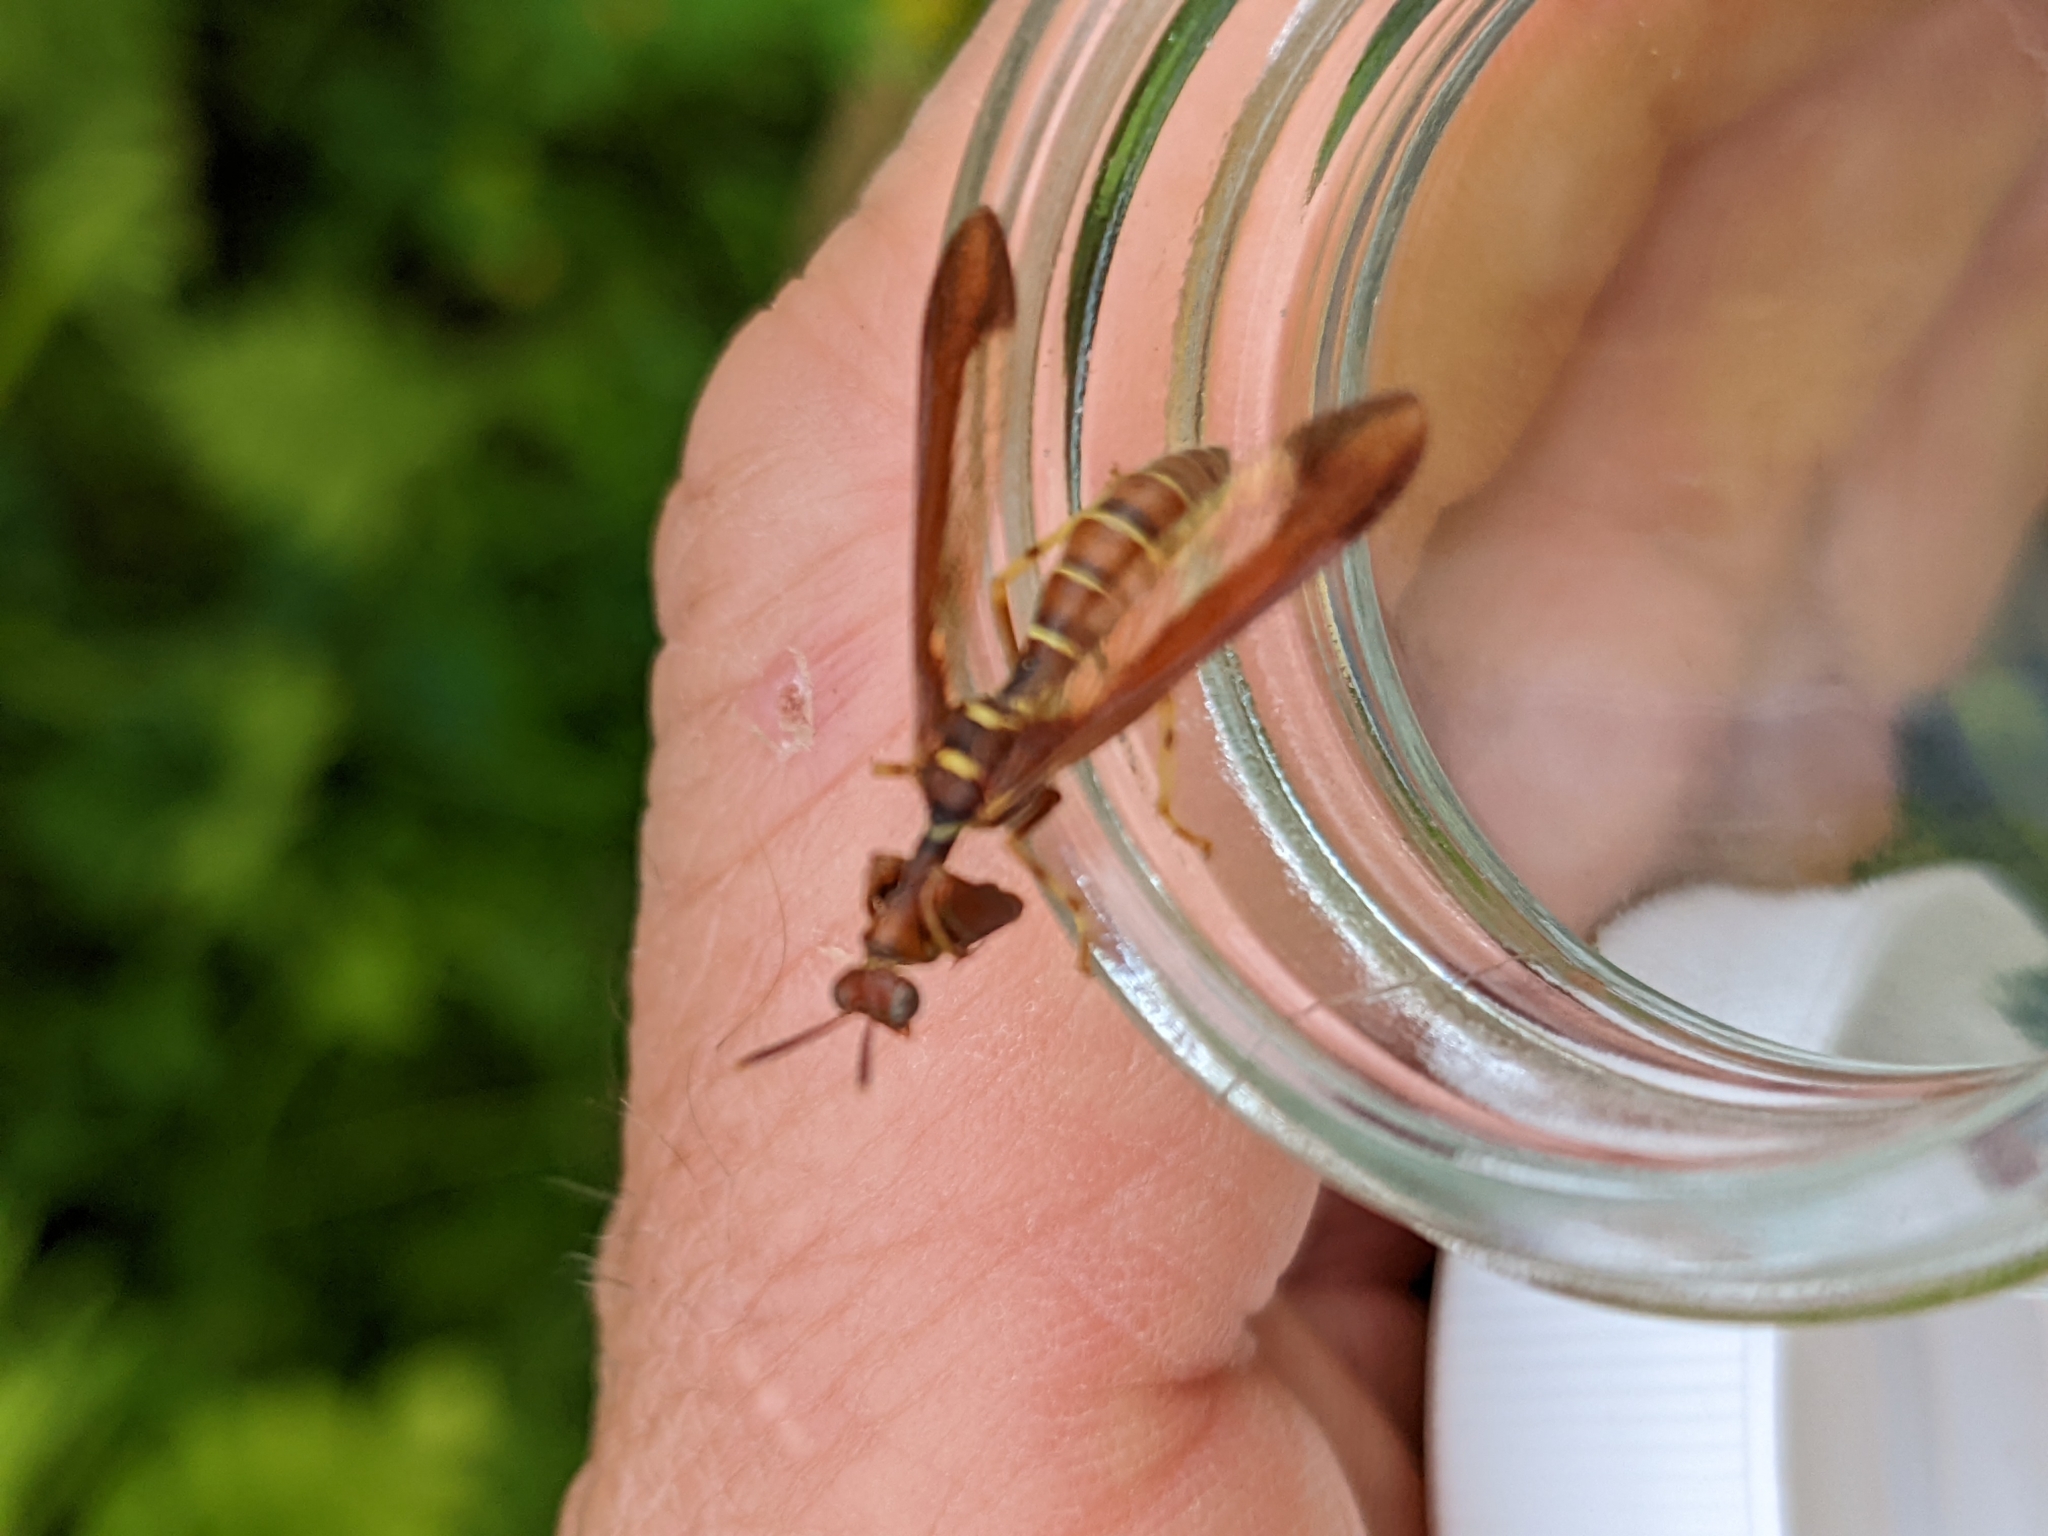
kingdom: Animalia
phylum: Arthropoda
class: Insecta
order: Neuroptera
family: Mantispidae
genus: Climaciella
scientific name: Climaciella brunnea
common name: Brown wasp mantidfly
